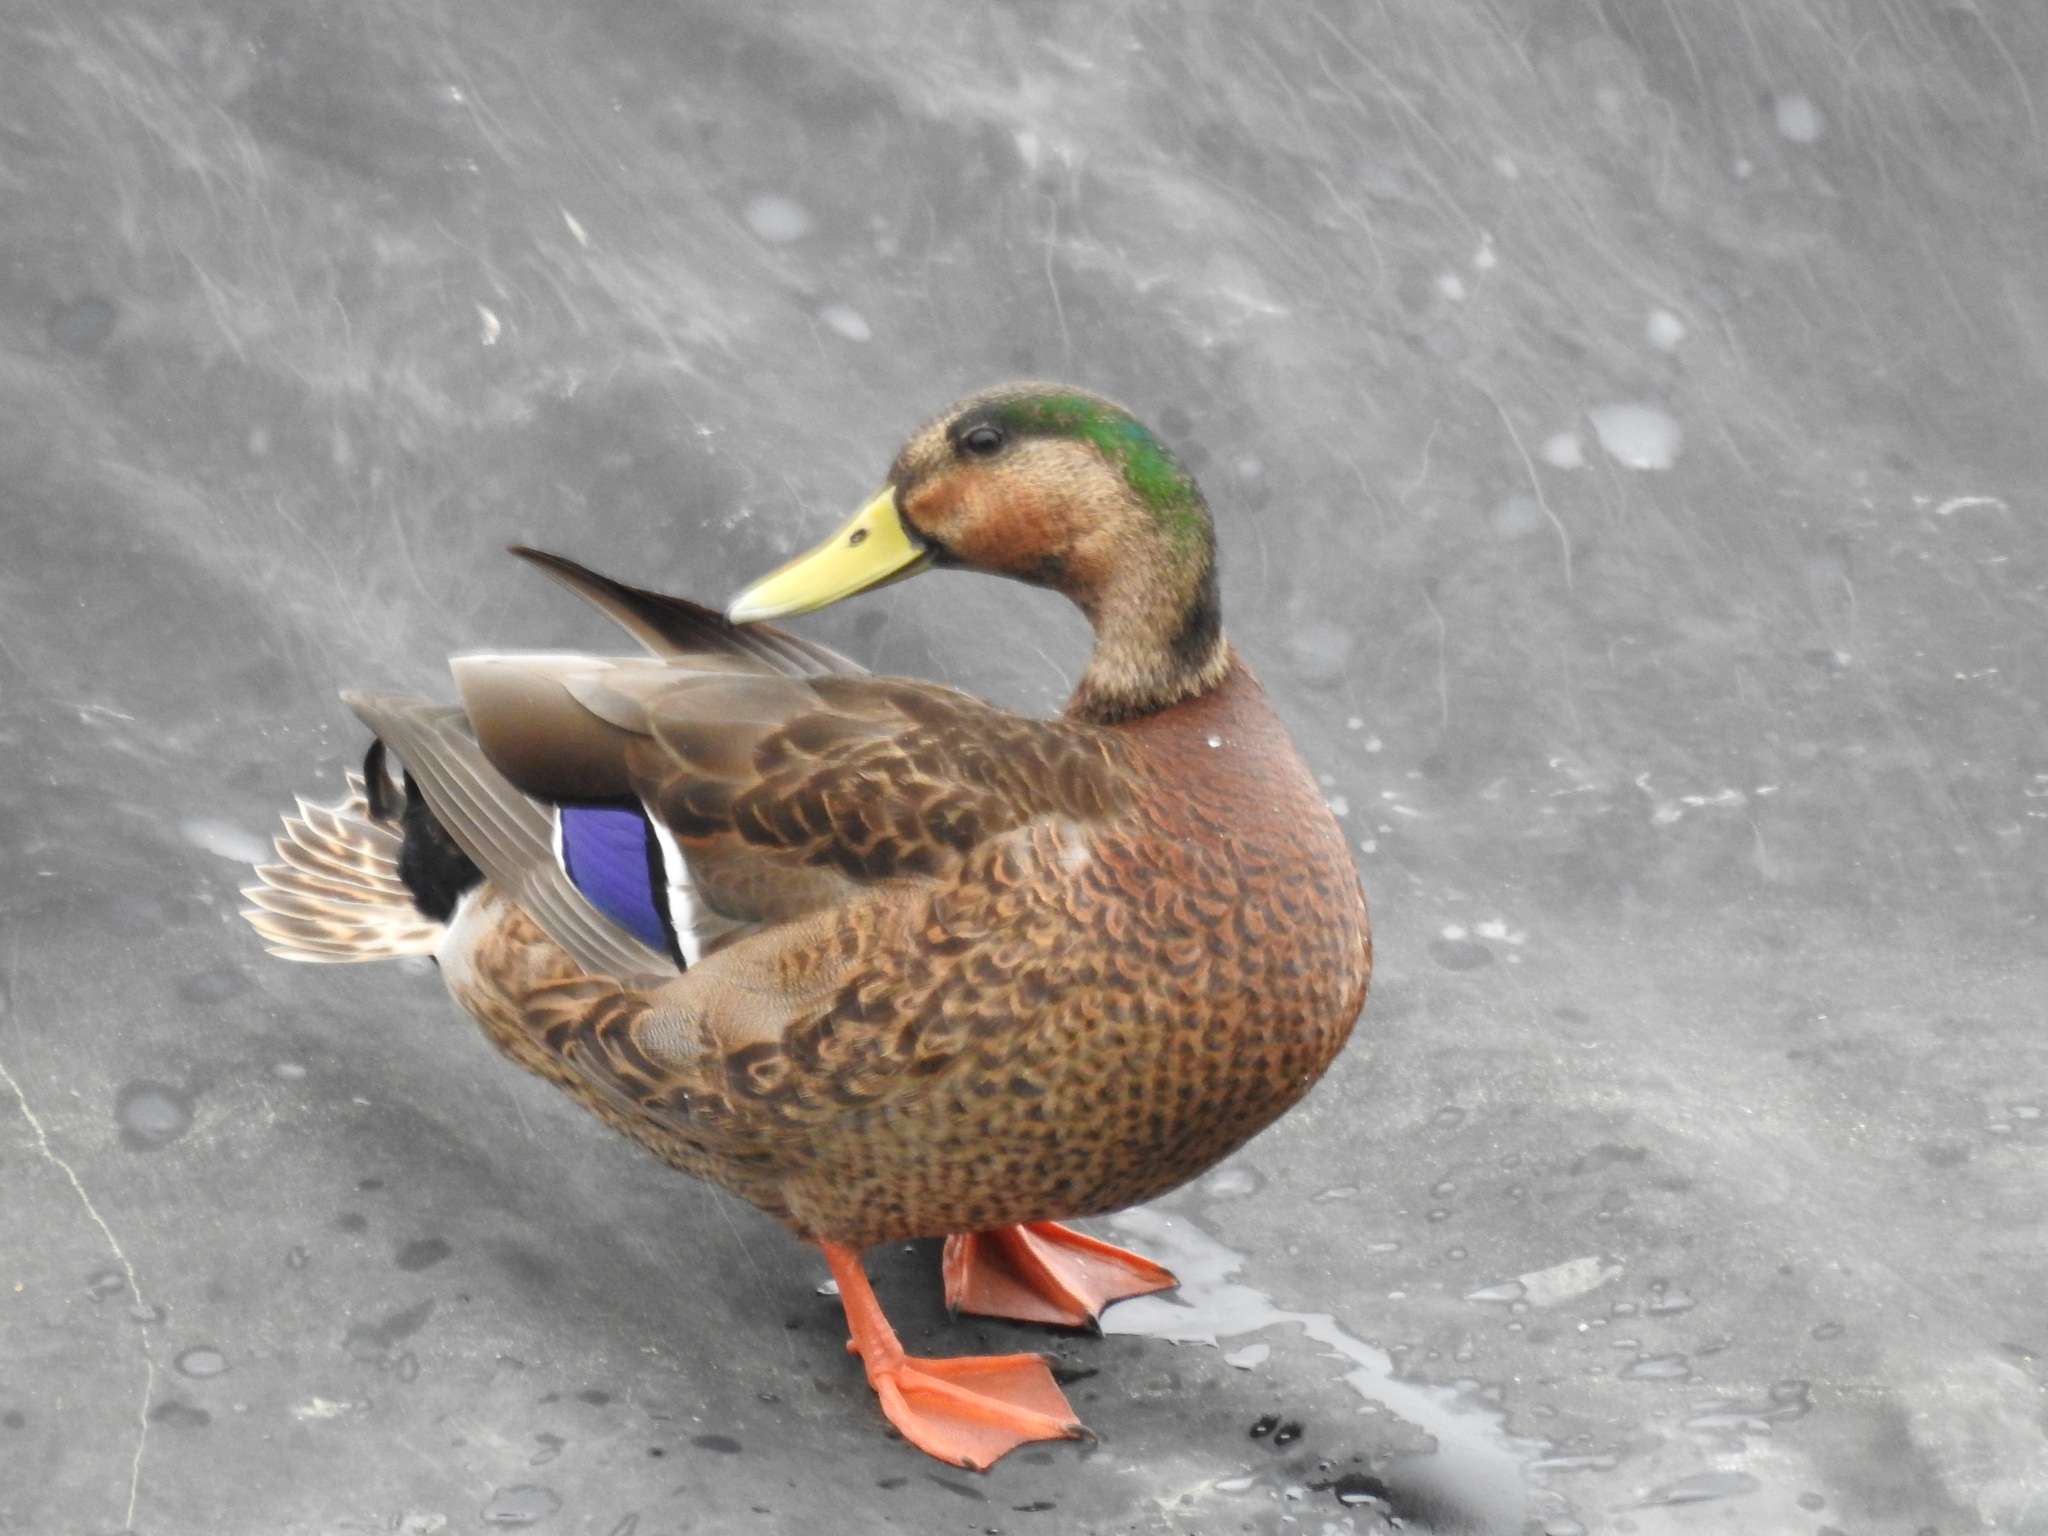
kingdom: Animalia
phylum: Chordata
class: Aves
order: Anseriformes
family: Anatidae
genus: Anas
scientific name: Anas
